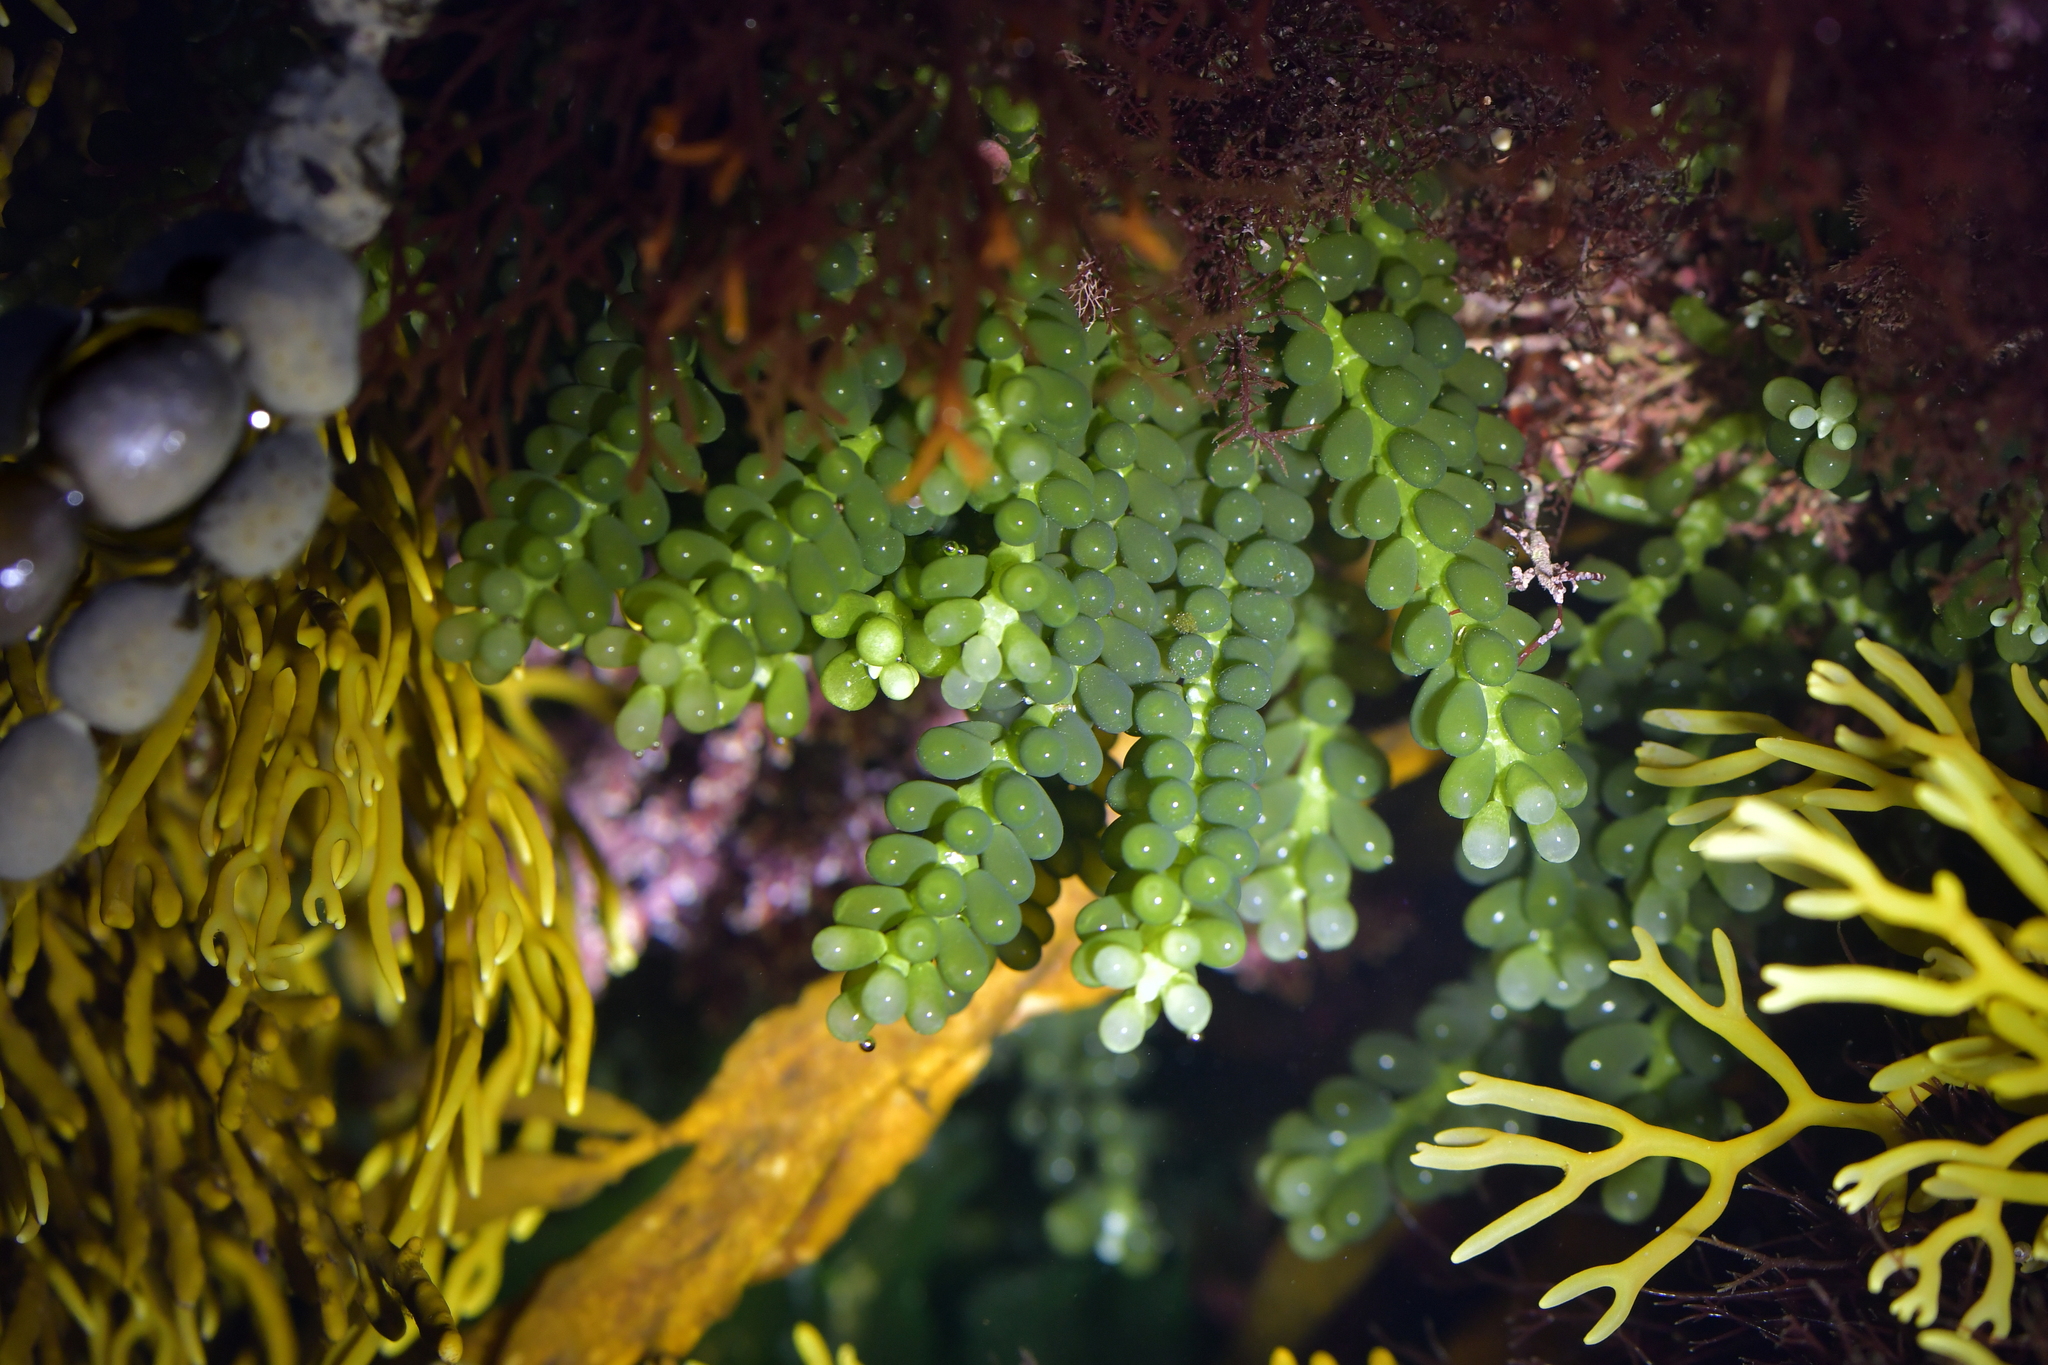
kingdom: Plantae
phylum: Chlorophyta
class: Ulvophyceae
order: Bryopsidales
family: Caulerpaceae
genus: Caulerpa
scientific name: Caulerpa geminata
